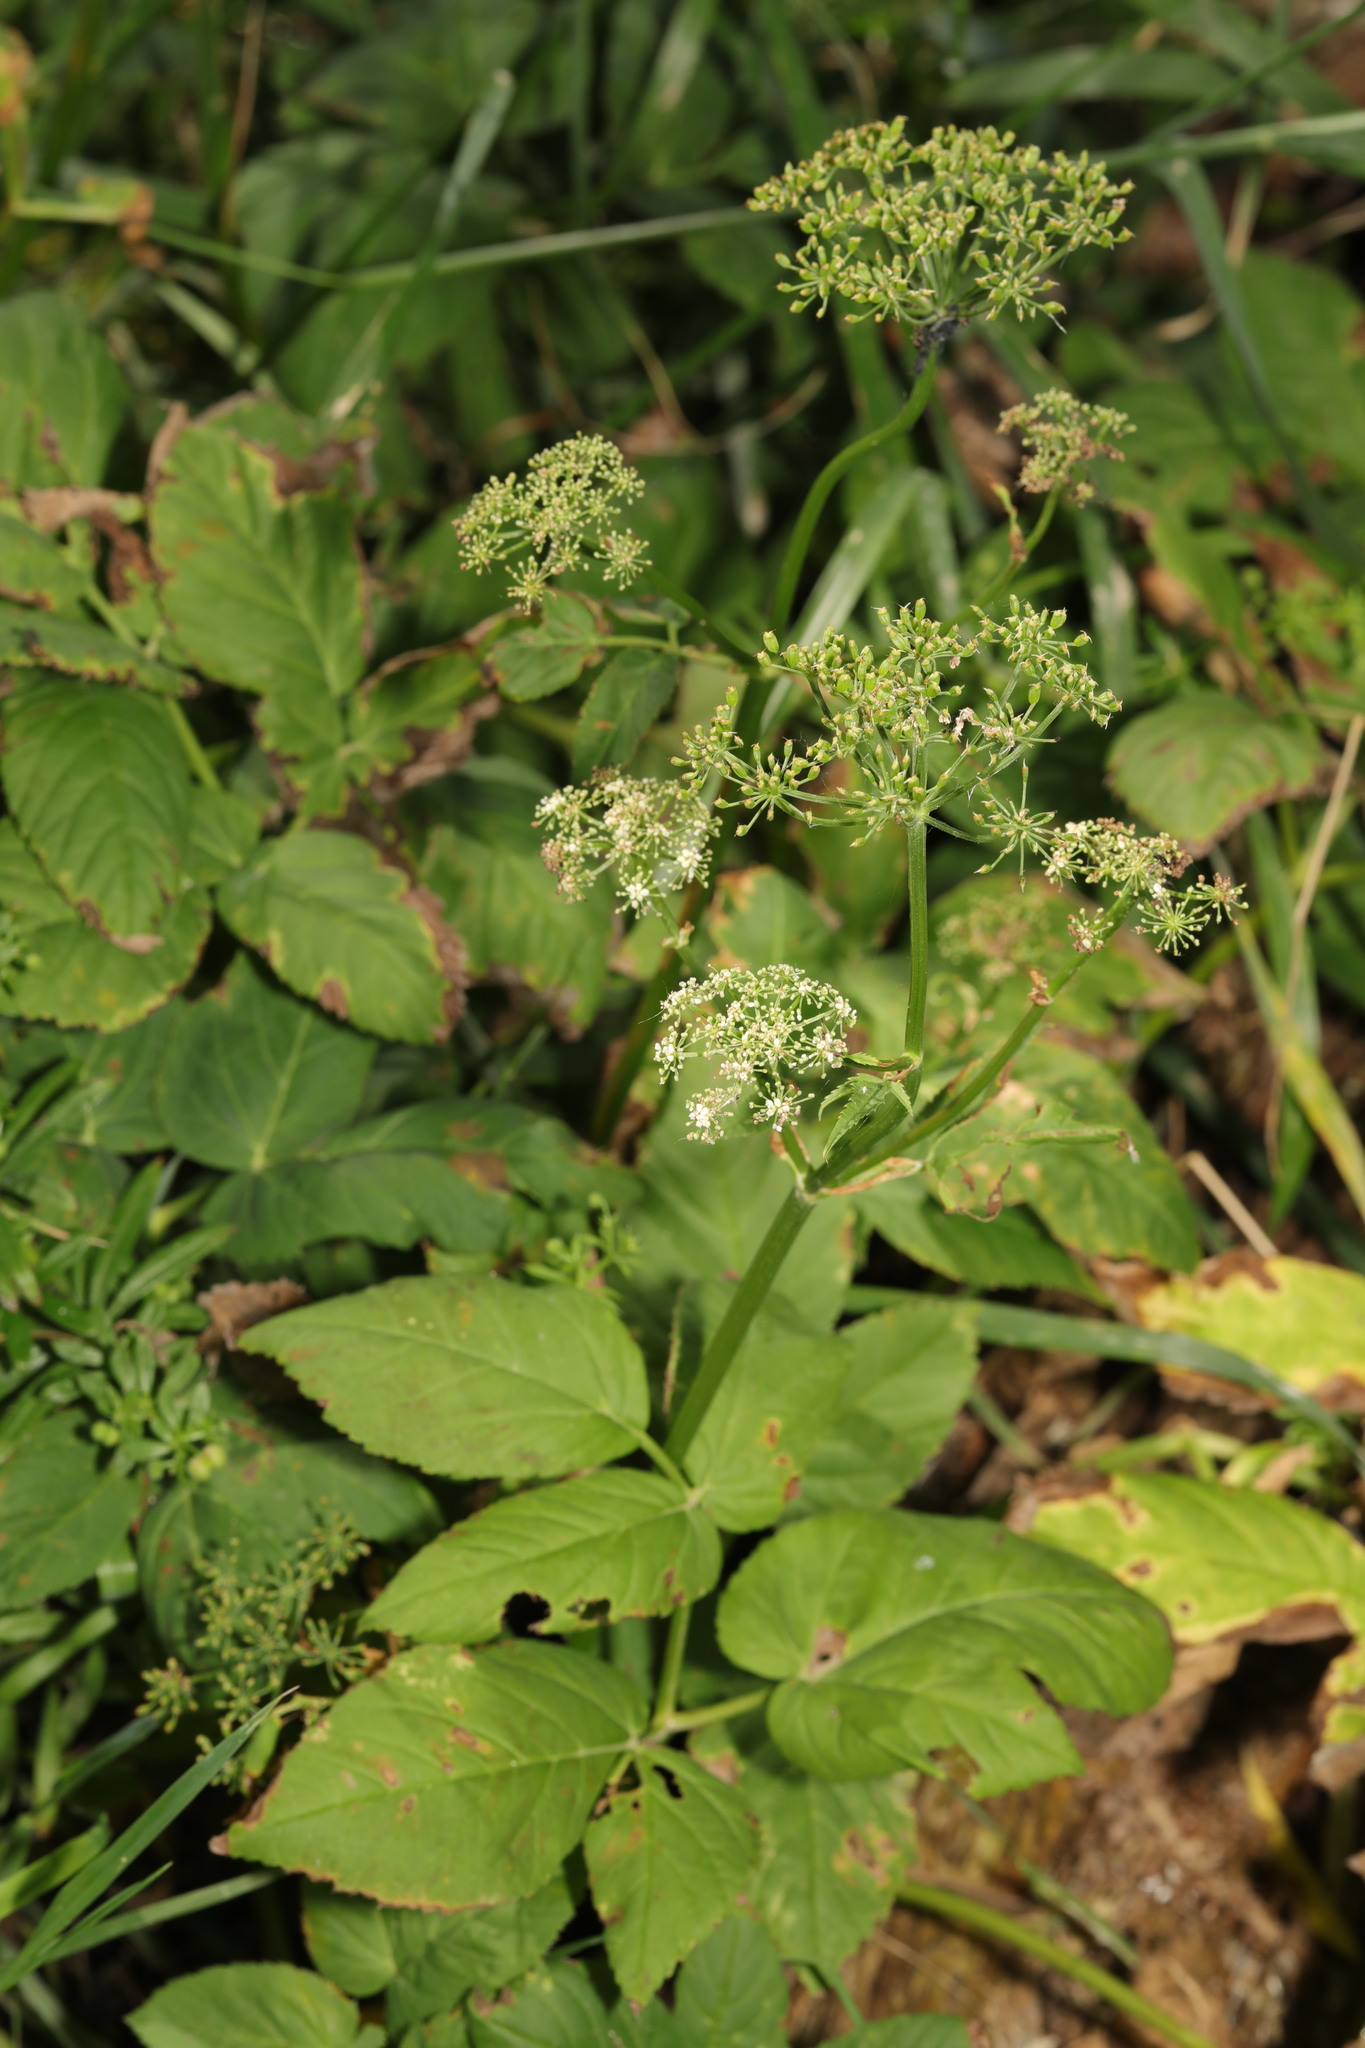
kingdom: Plantae
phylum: Tracheophyta
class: Magnoliopsida
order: Apiales
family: Apiaceae
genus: Aegopodium
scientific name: Aegopodium podagraria
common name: Ground-elder
